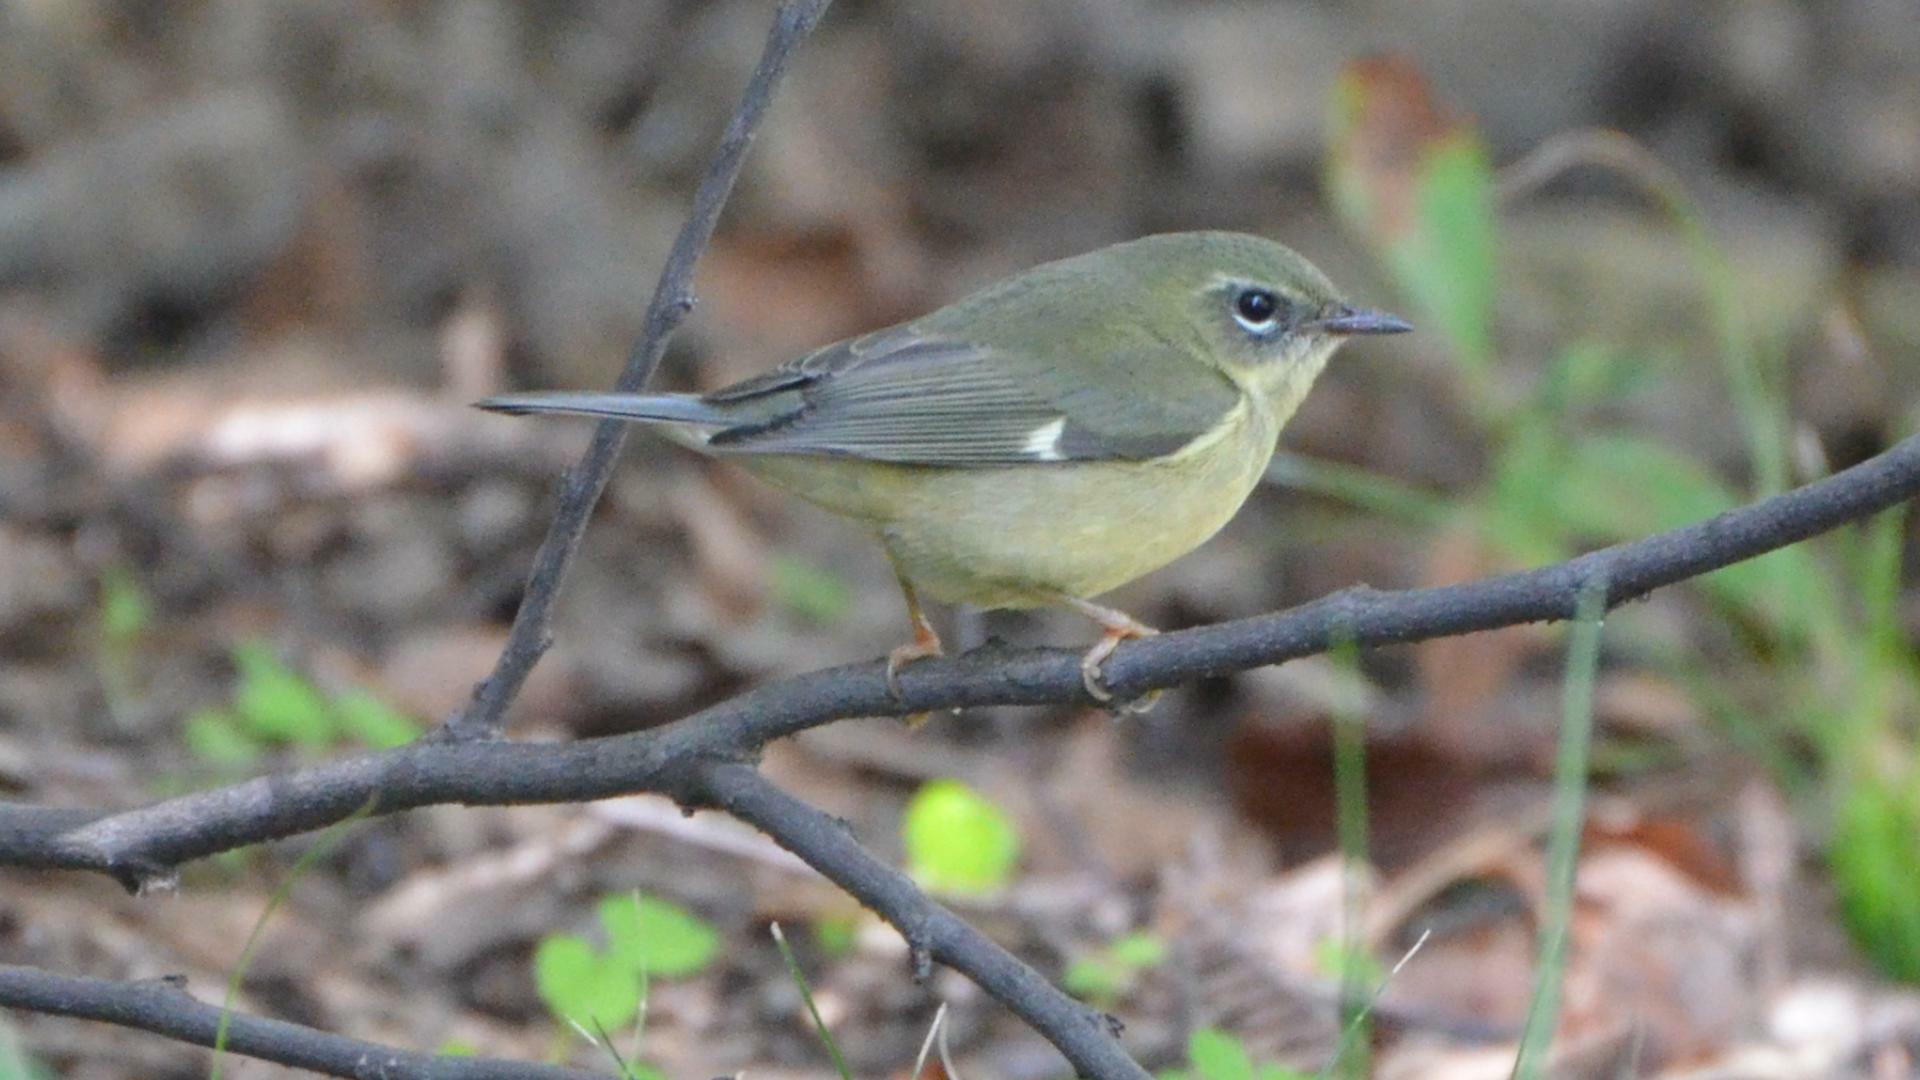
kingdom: Animalia
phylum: Chordata
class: Aves
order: Passeriformes
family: Parulidae
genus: Setophaga
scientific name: Setophaga caerulescens
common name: Black-throated blue warbler
